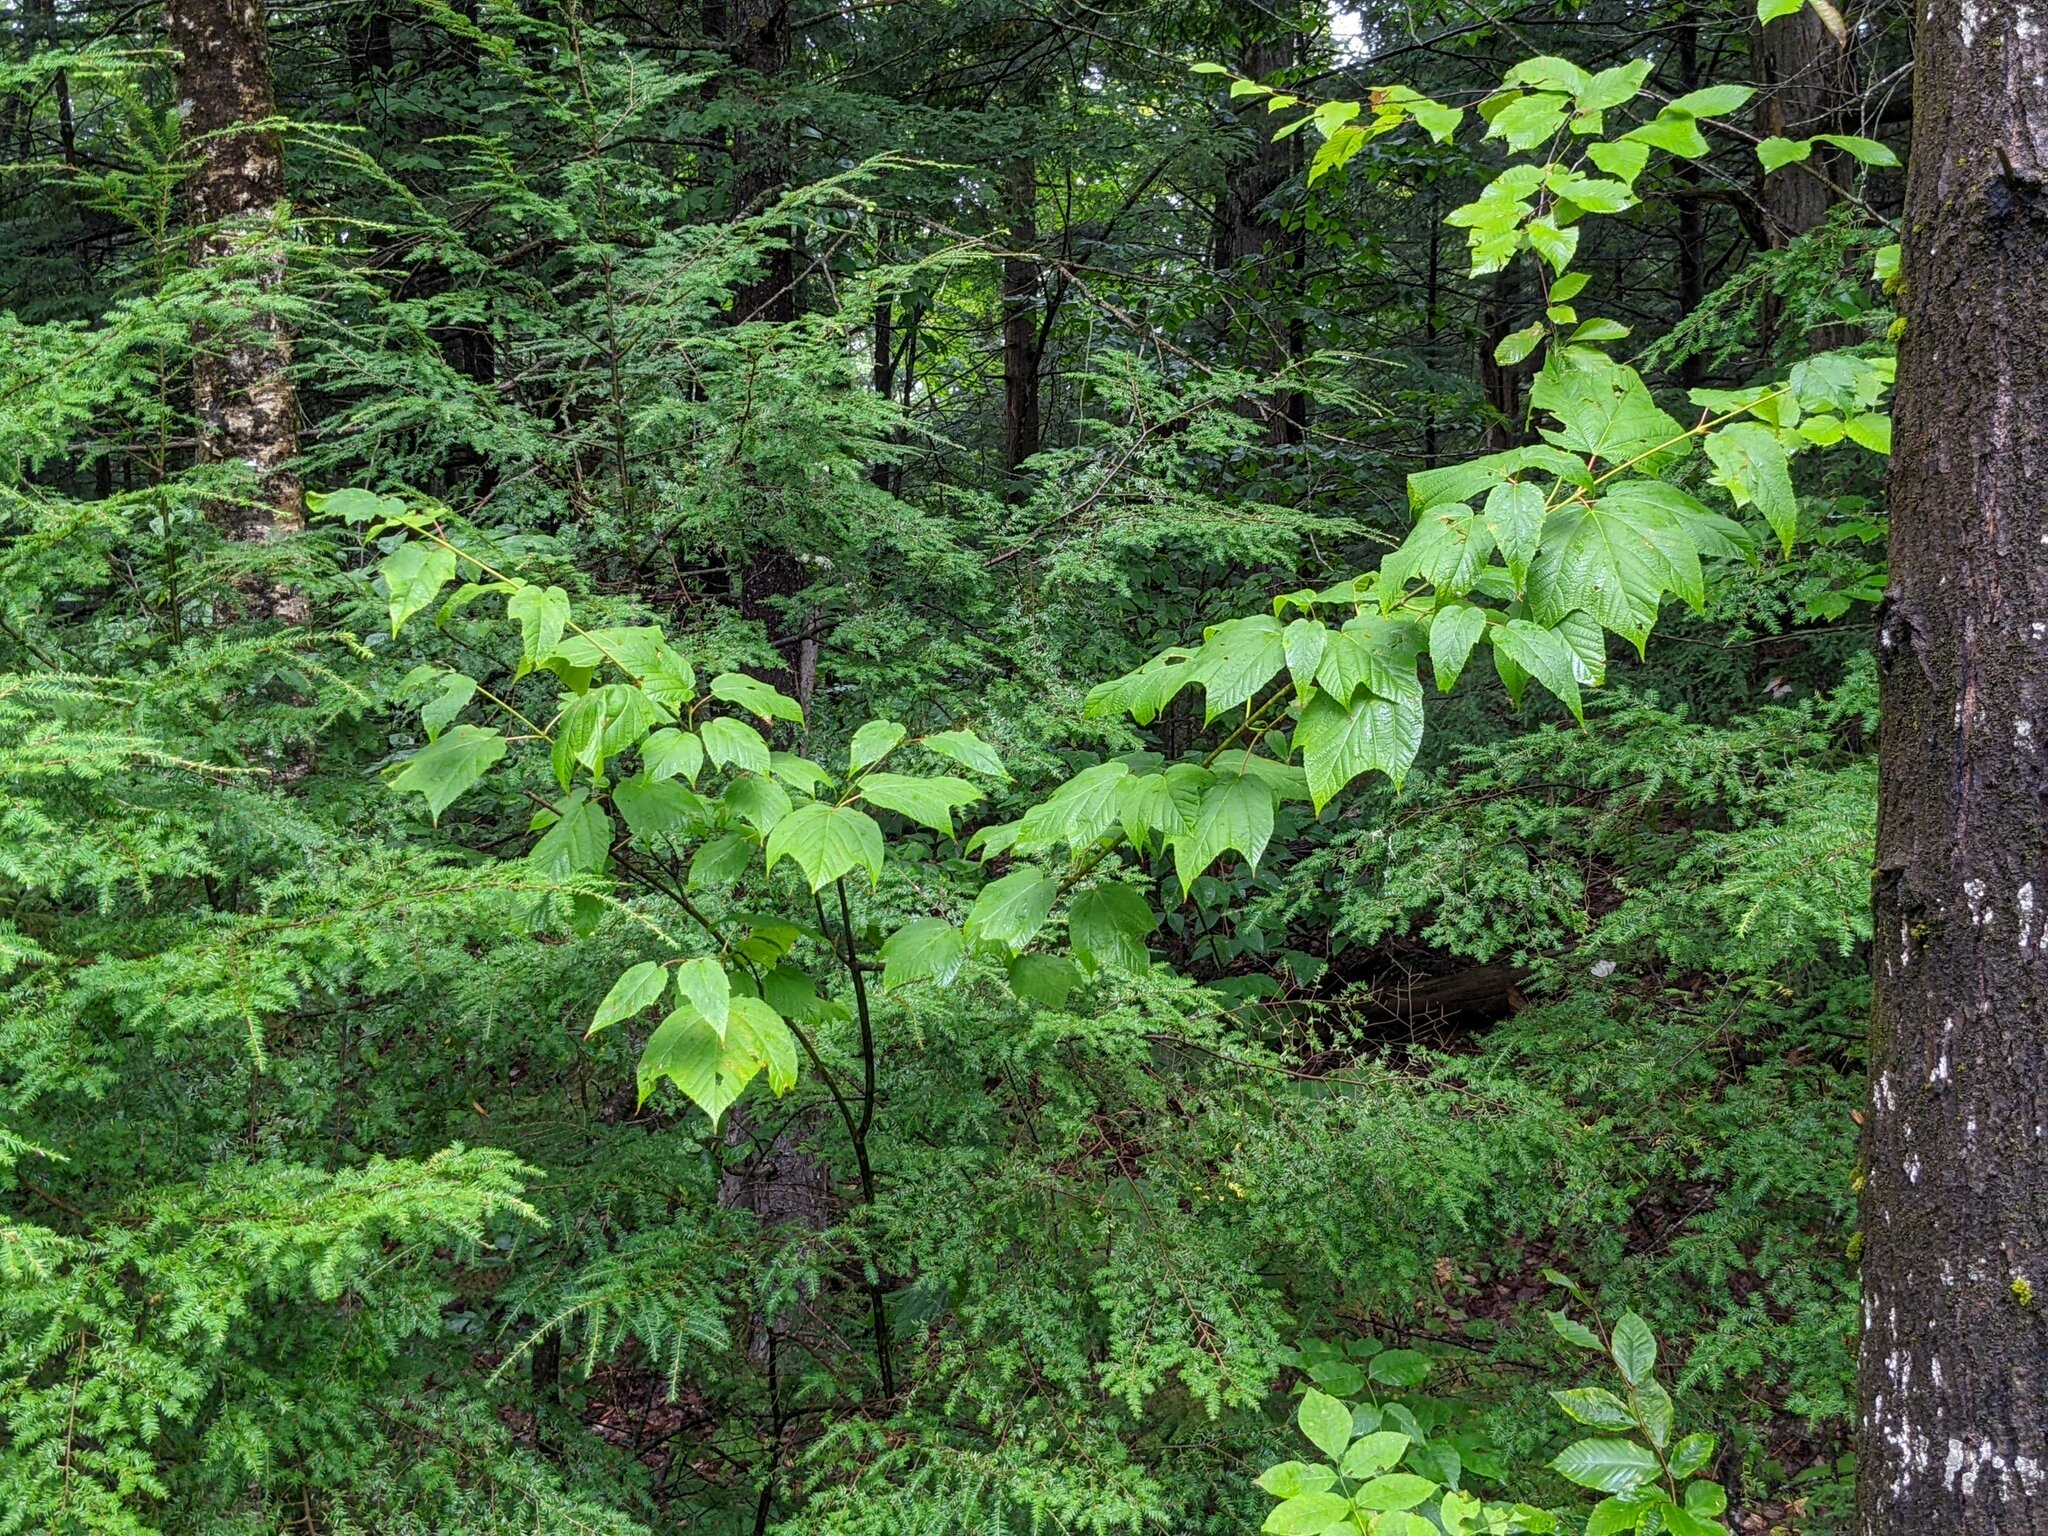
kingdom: Plantae
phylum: Tracheophyta
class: Magnoliopsida
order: Sapindales
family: Sapindaceae
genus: Acer
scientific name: Acer pensylvanicum
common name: Moosewood
